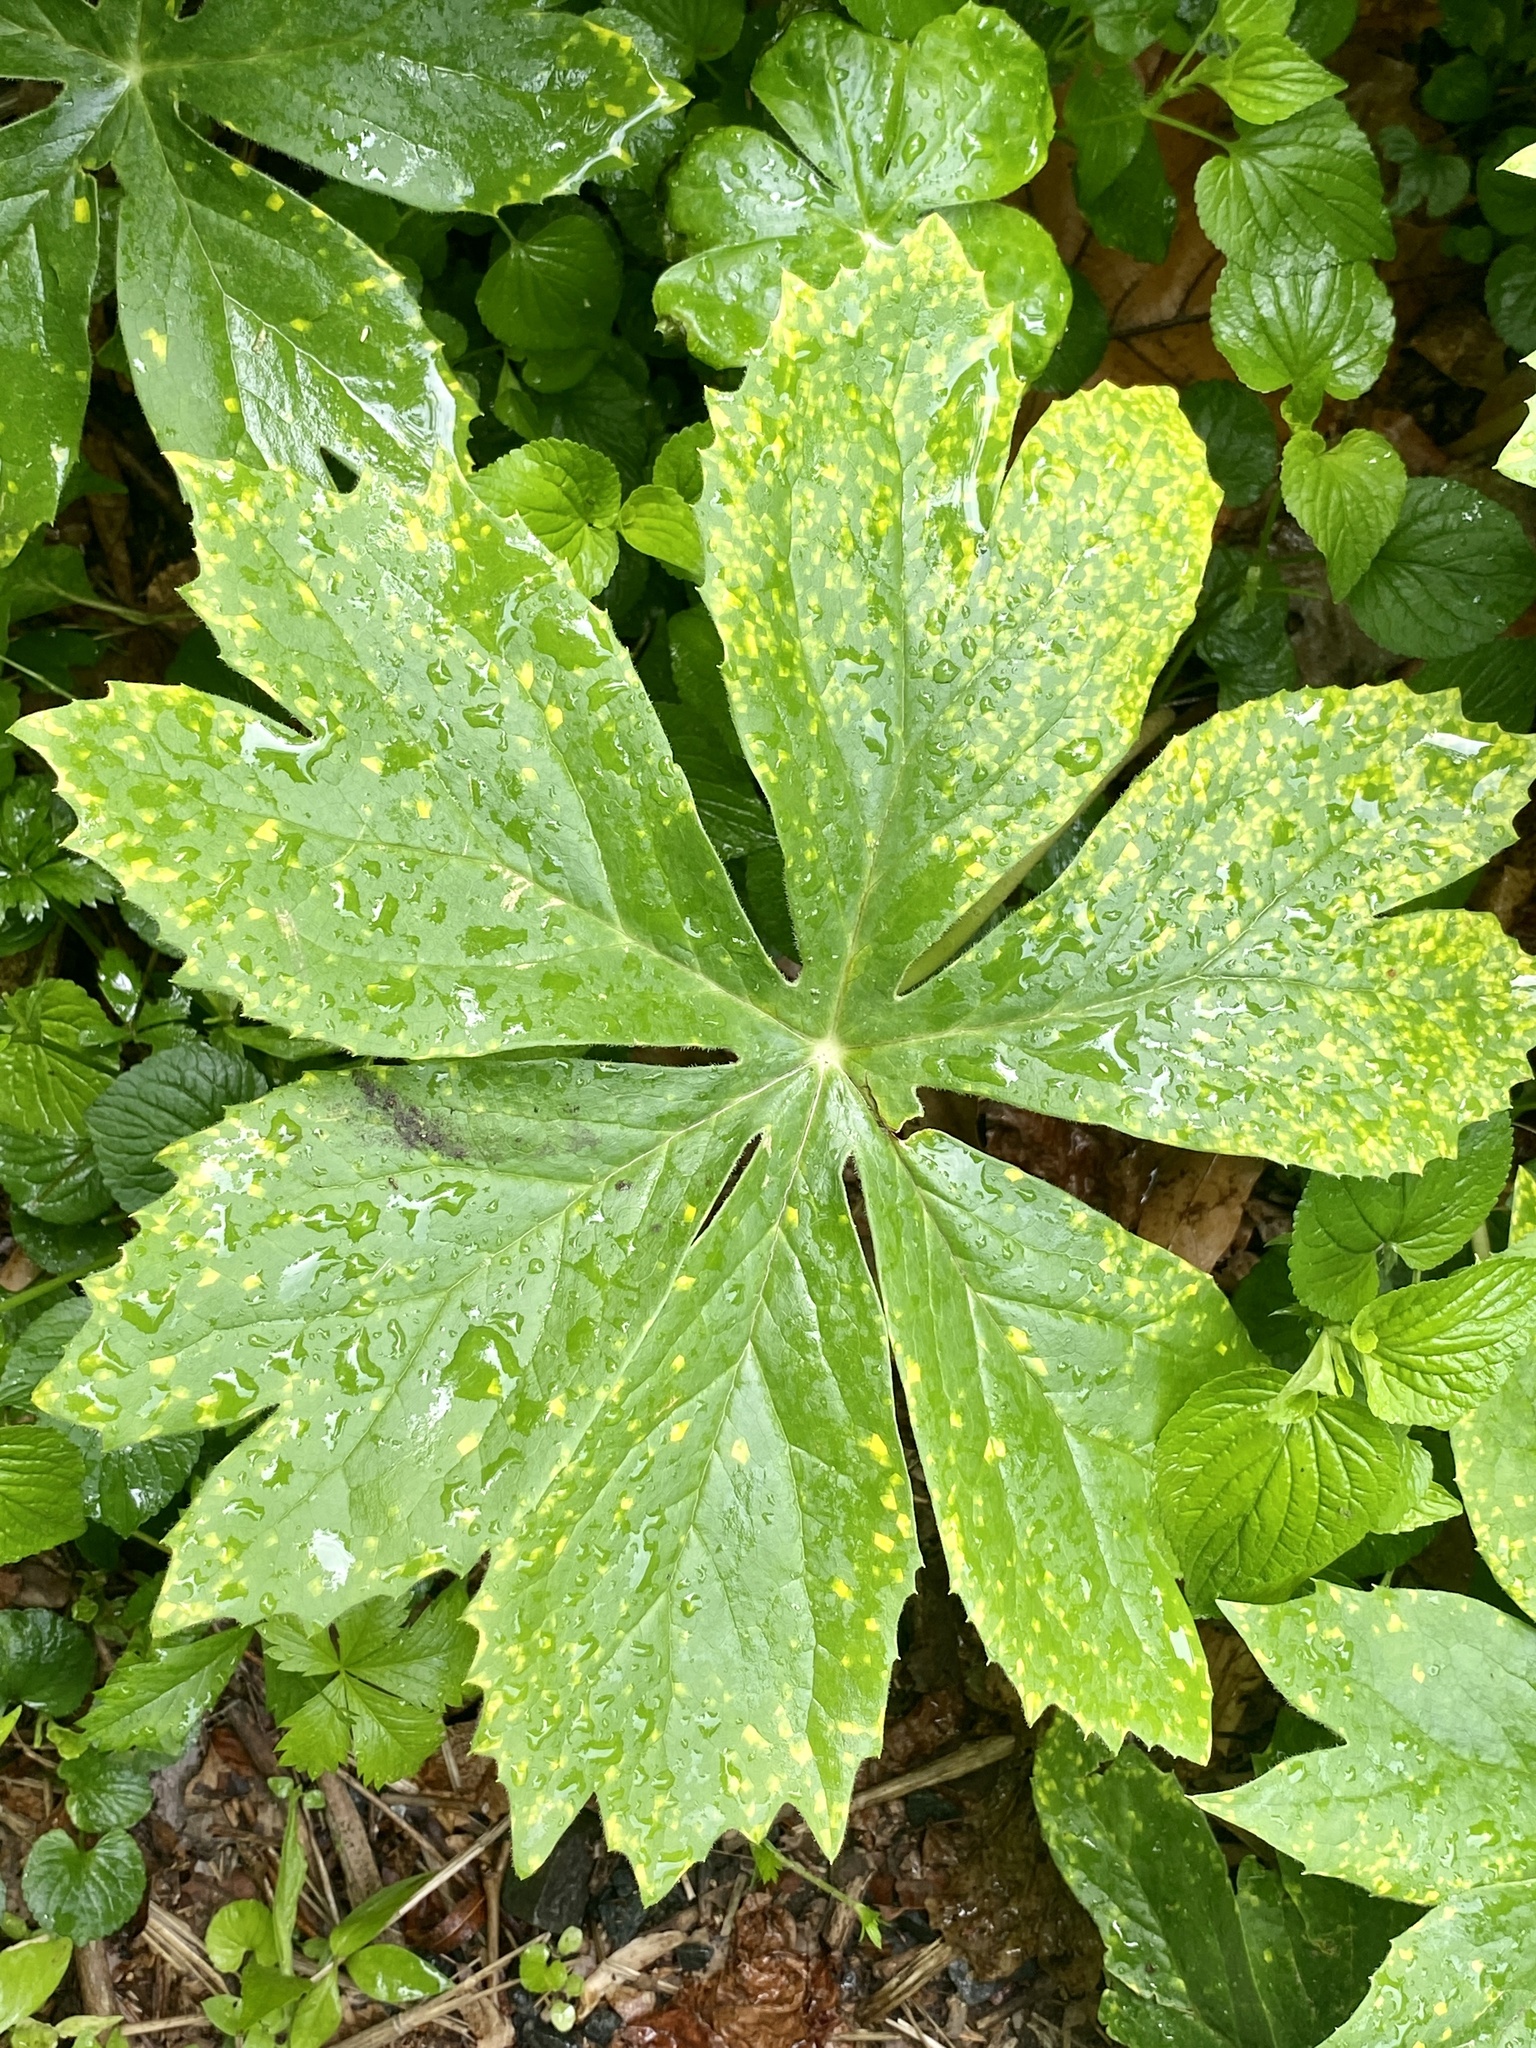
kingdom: Fungi
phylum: Basidiomycota
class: Pucciniomycetes
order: Pucciniales
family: Pucciniaceae
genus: Puccinia
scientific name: Puccinia podophylli
